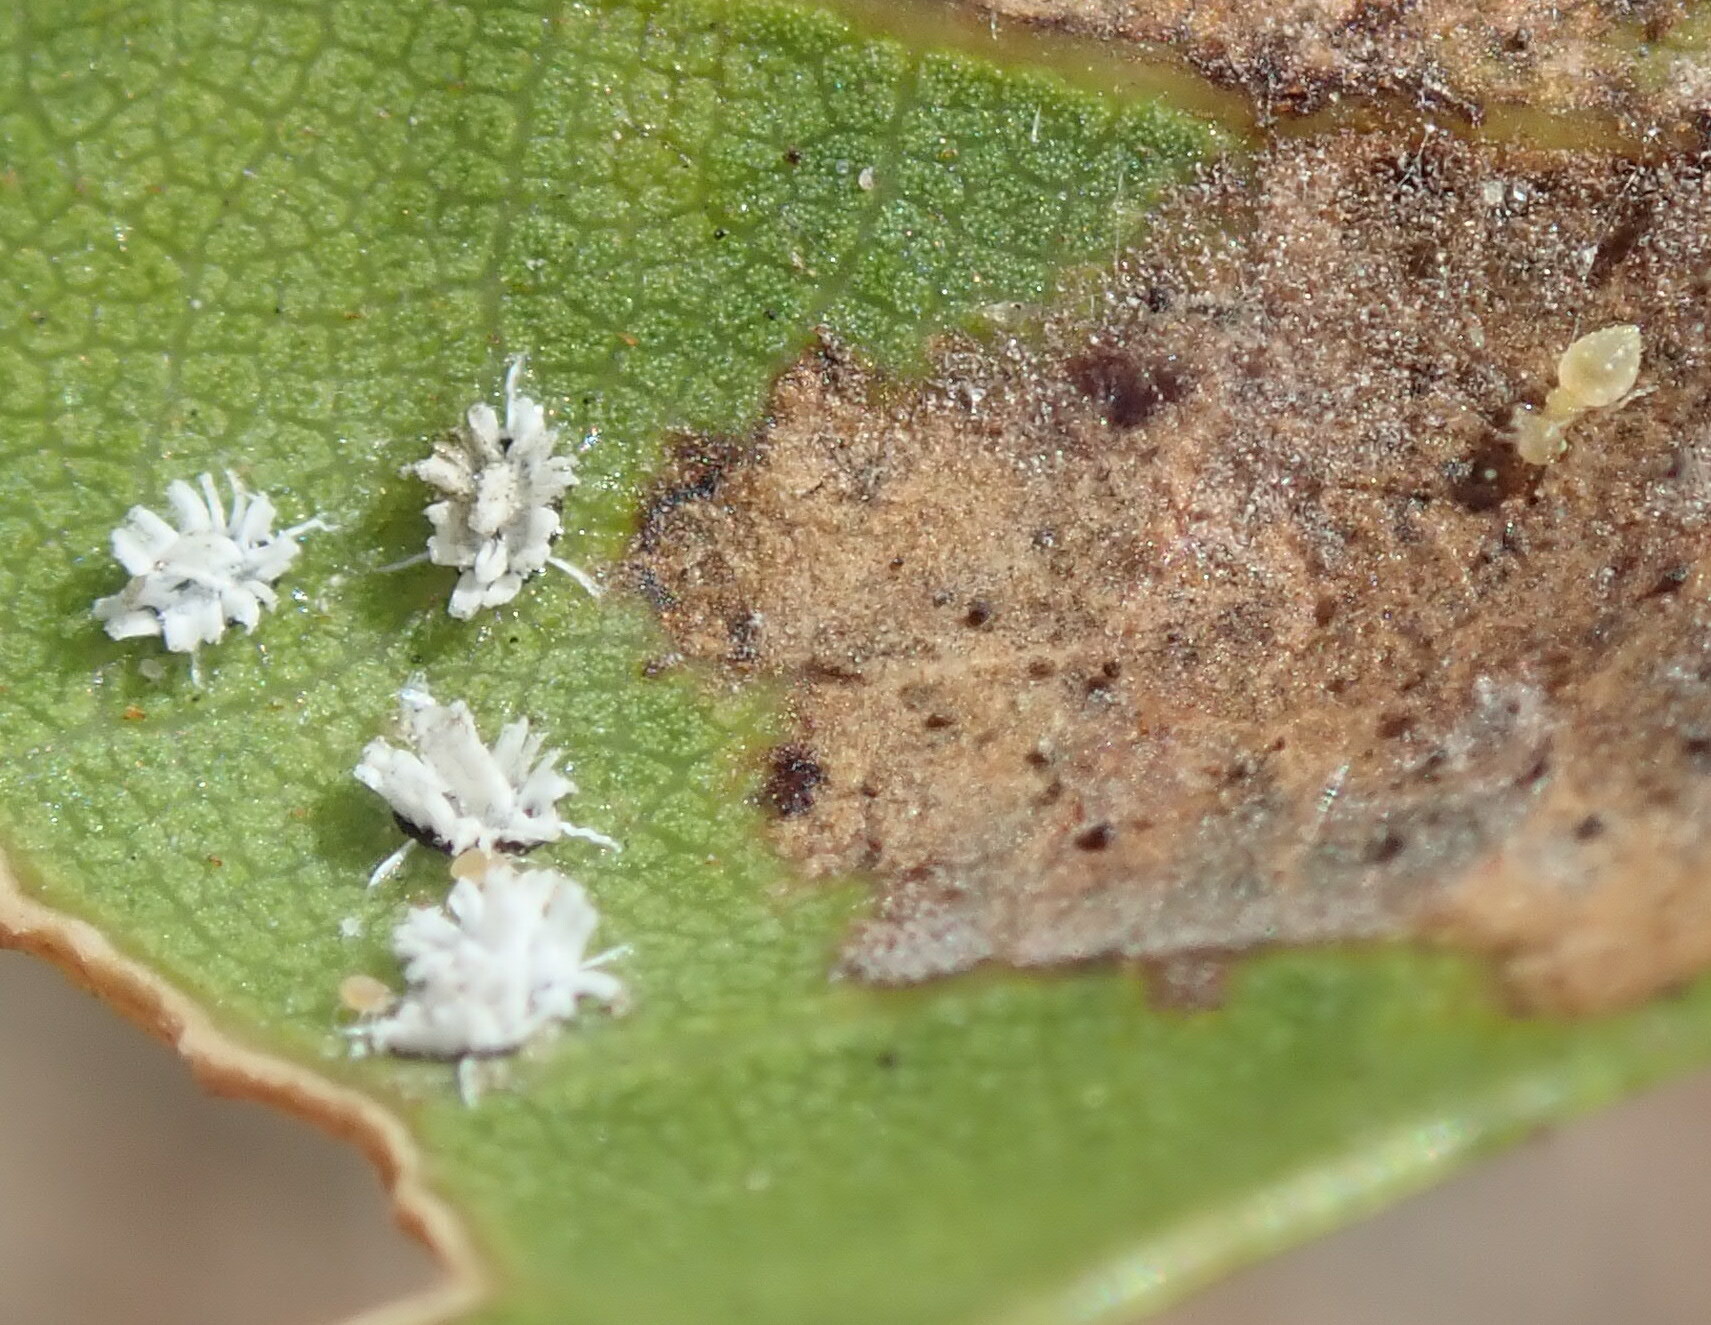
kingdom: Animalia
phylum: Arthropoda
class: Insecta
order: Hemiptera
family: Aleyrodidae
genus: Aleuroplatus
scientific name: Aleuroplatus coronata
